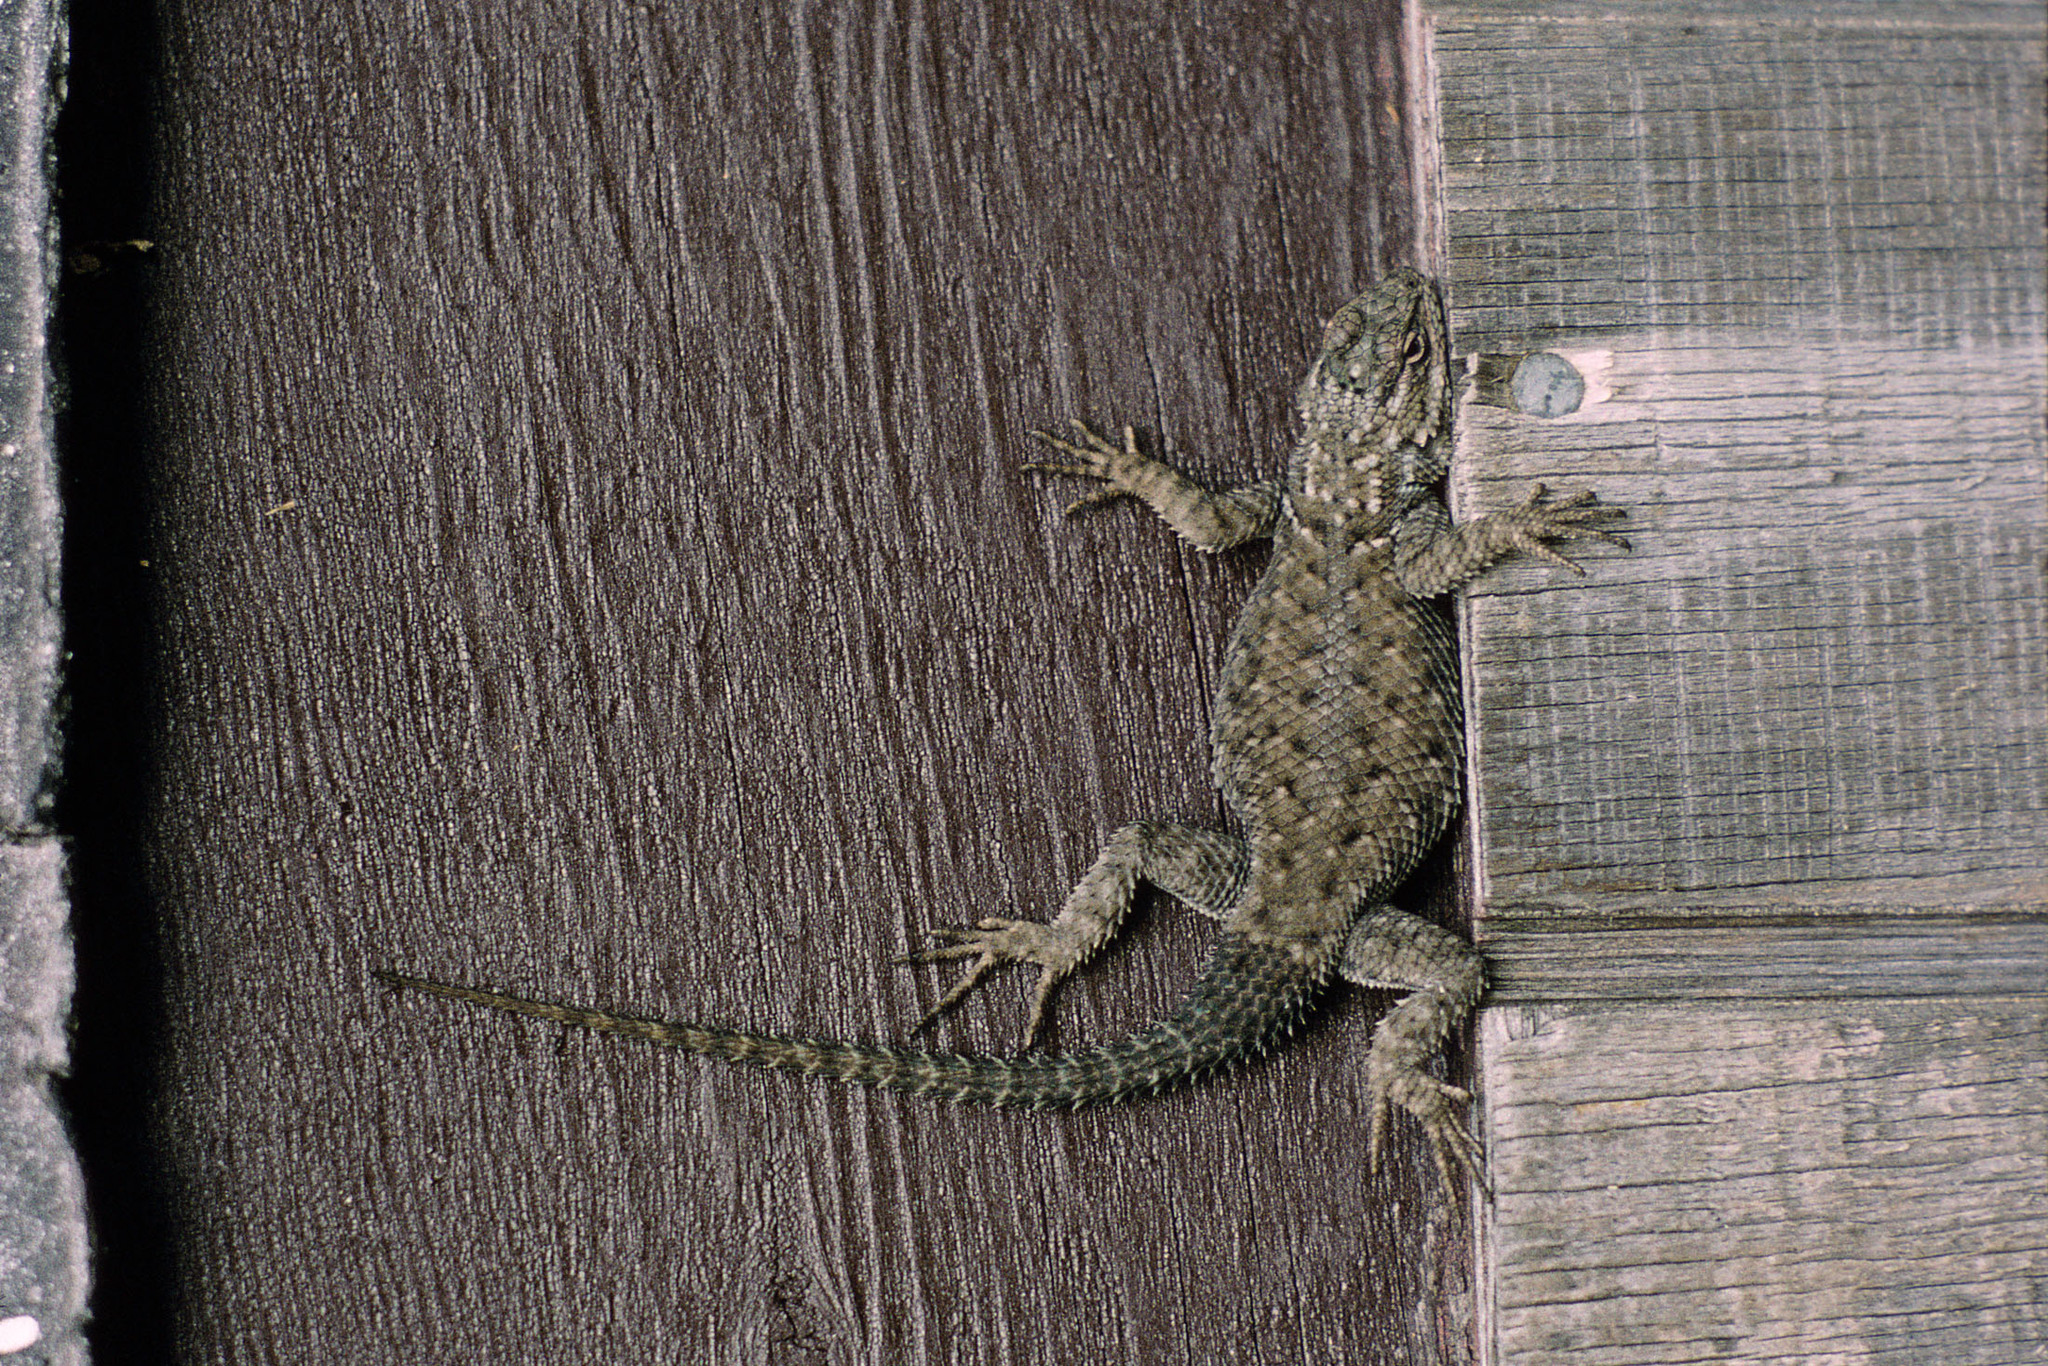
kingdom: Animalia
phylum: Chordata
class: Squamata
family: Phrynosomatidae
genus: Sceloporus
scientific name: Sceloporus jarrovii
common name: Yarrow's spiny lizard
